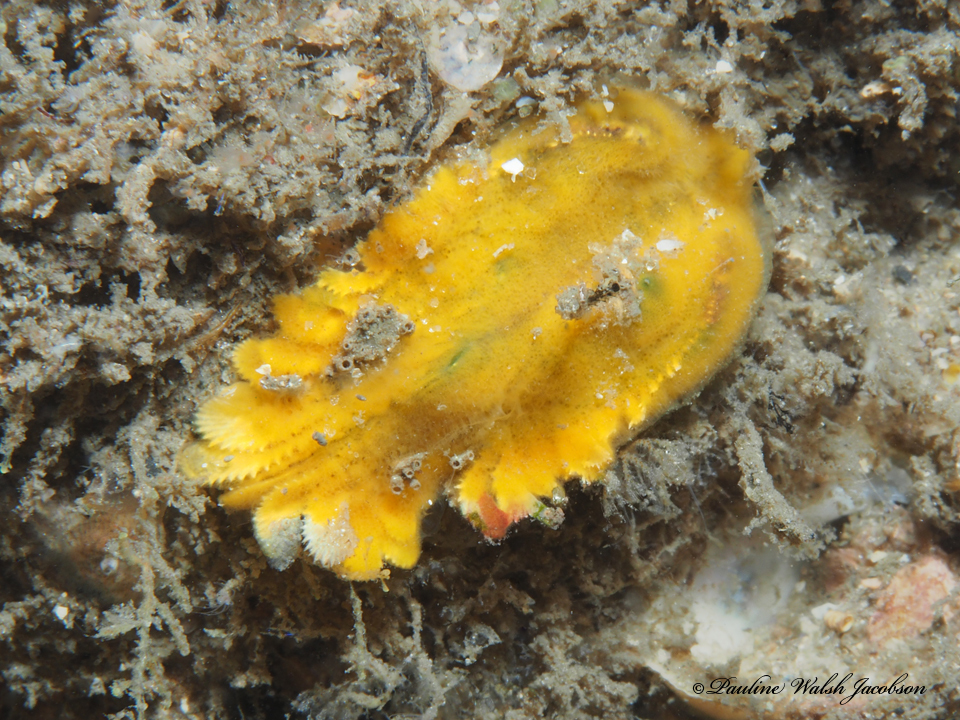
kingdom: Animalia
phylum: Mollusca
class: Bivalvia
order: Arcida
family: Arcidae
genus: Lamarcka
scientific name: Lamarcka imbricata
